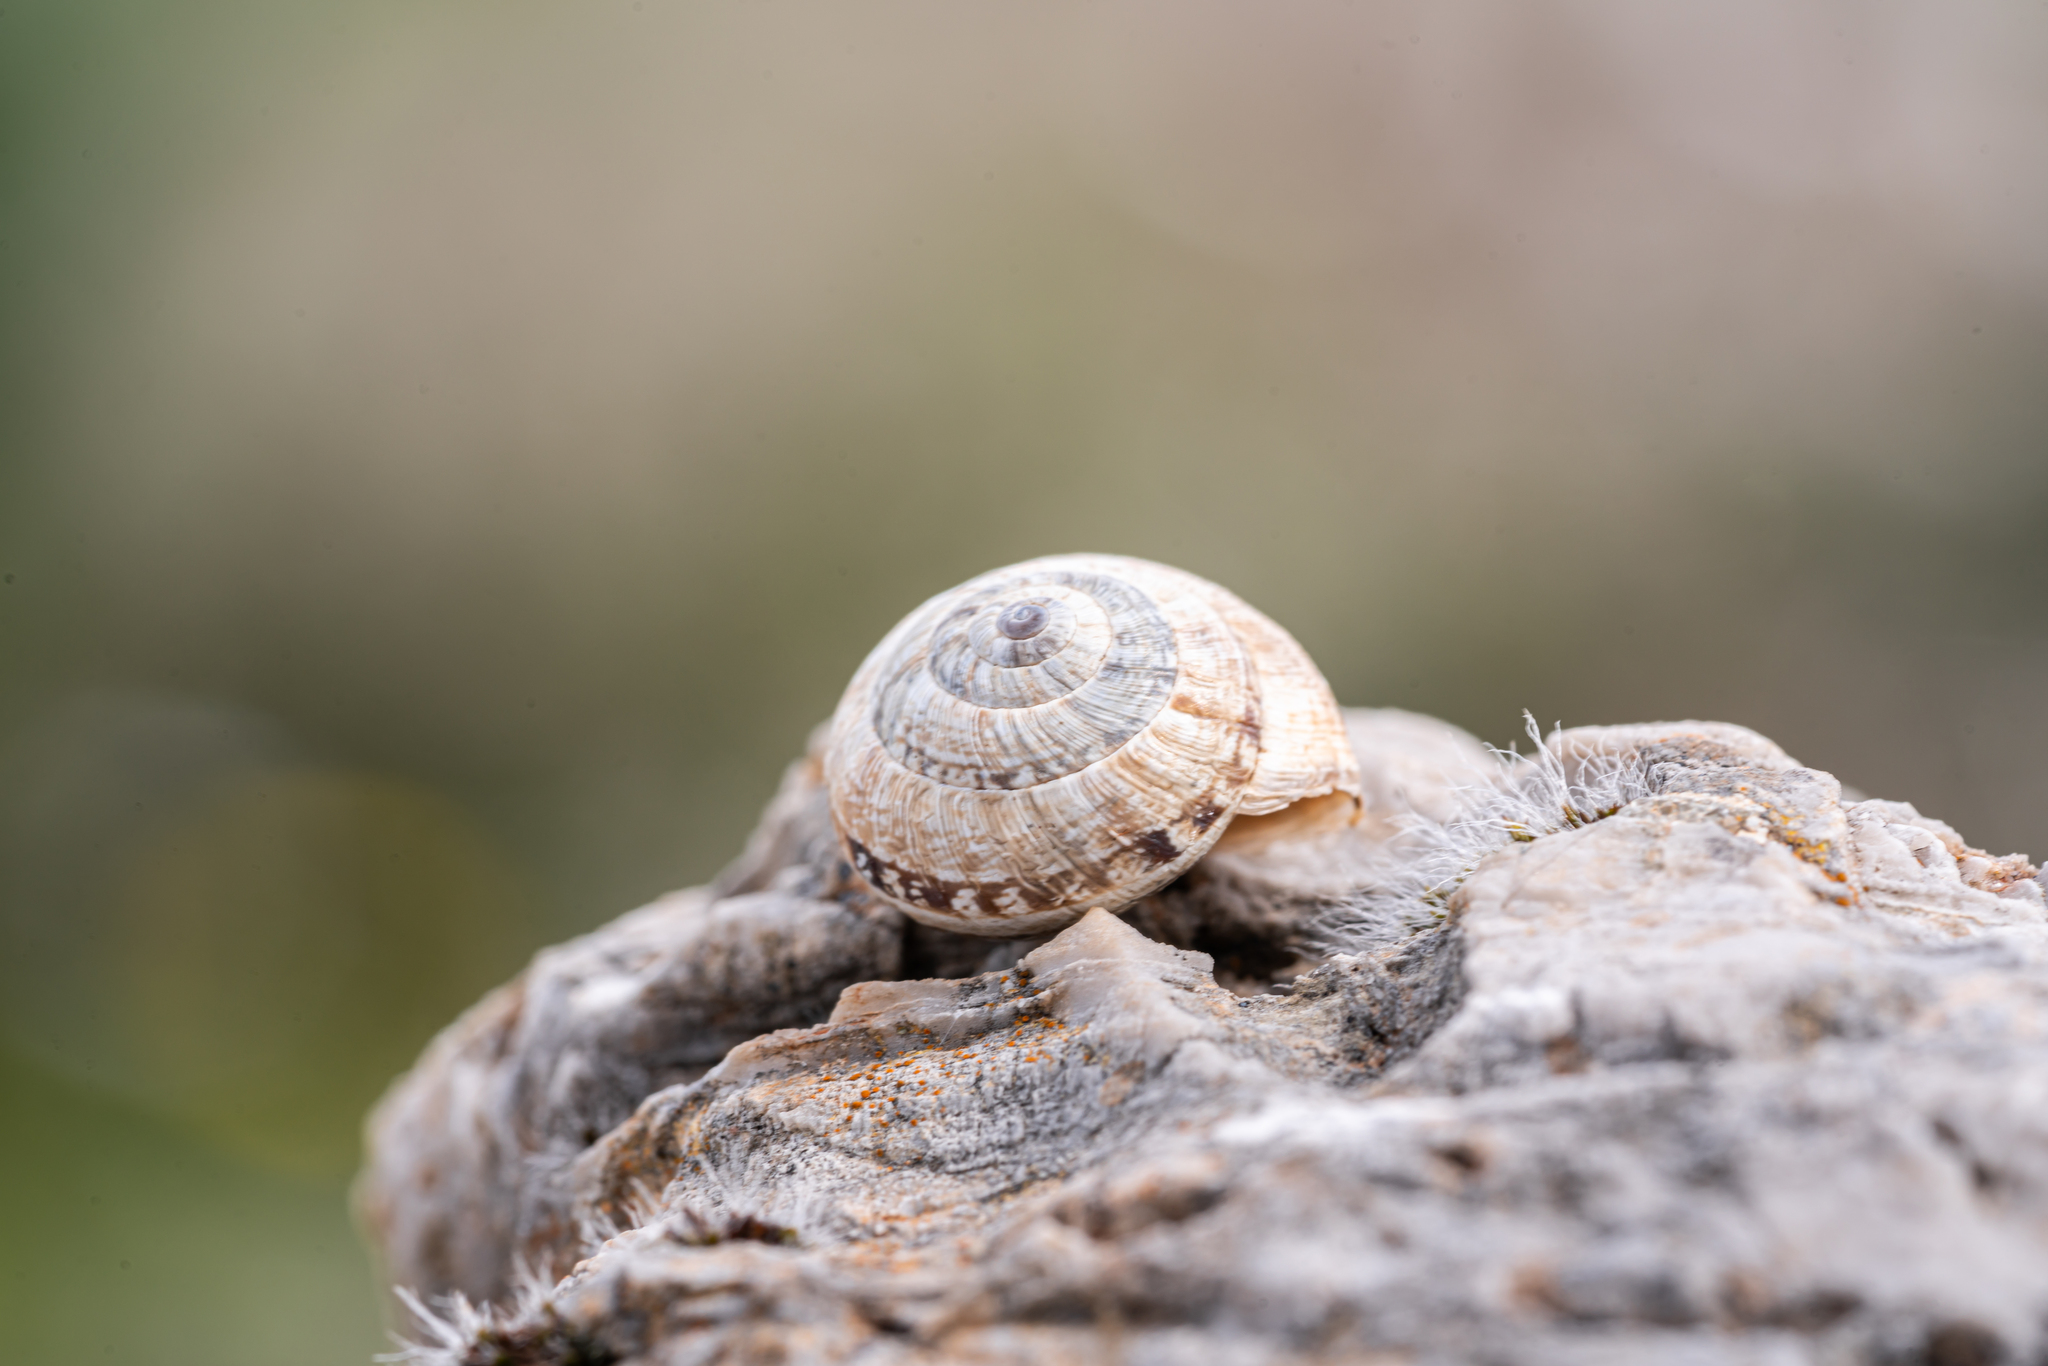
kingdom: Animalia
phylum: Mollusca
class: Gastropoda
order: Stylommatophora
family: Geomitridae
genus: Xerocrassa
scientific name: Xerocrassa cretica
